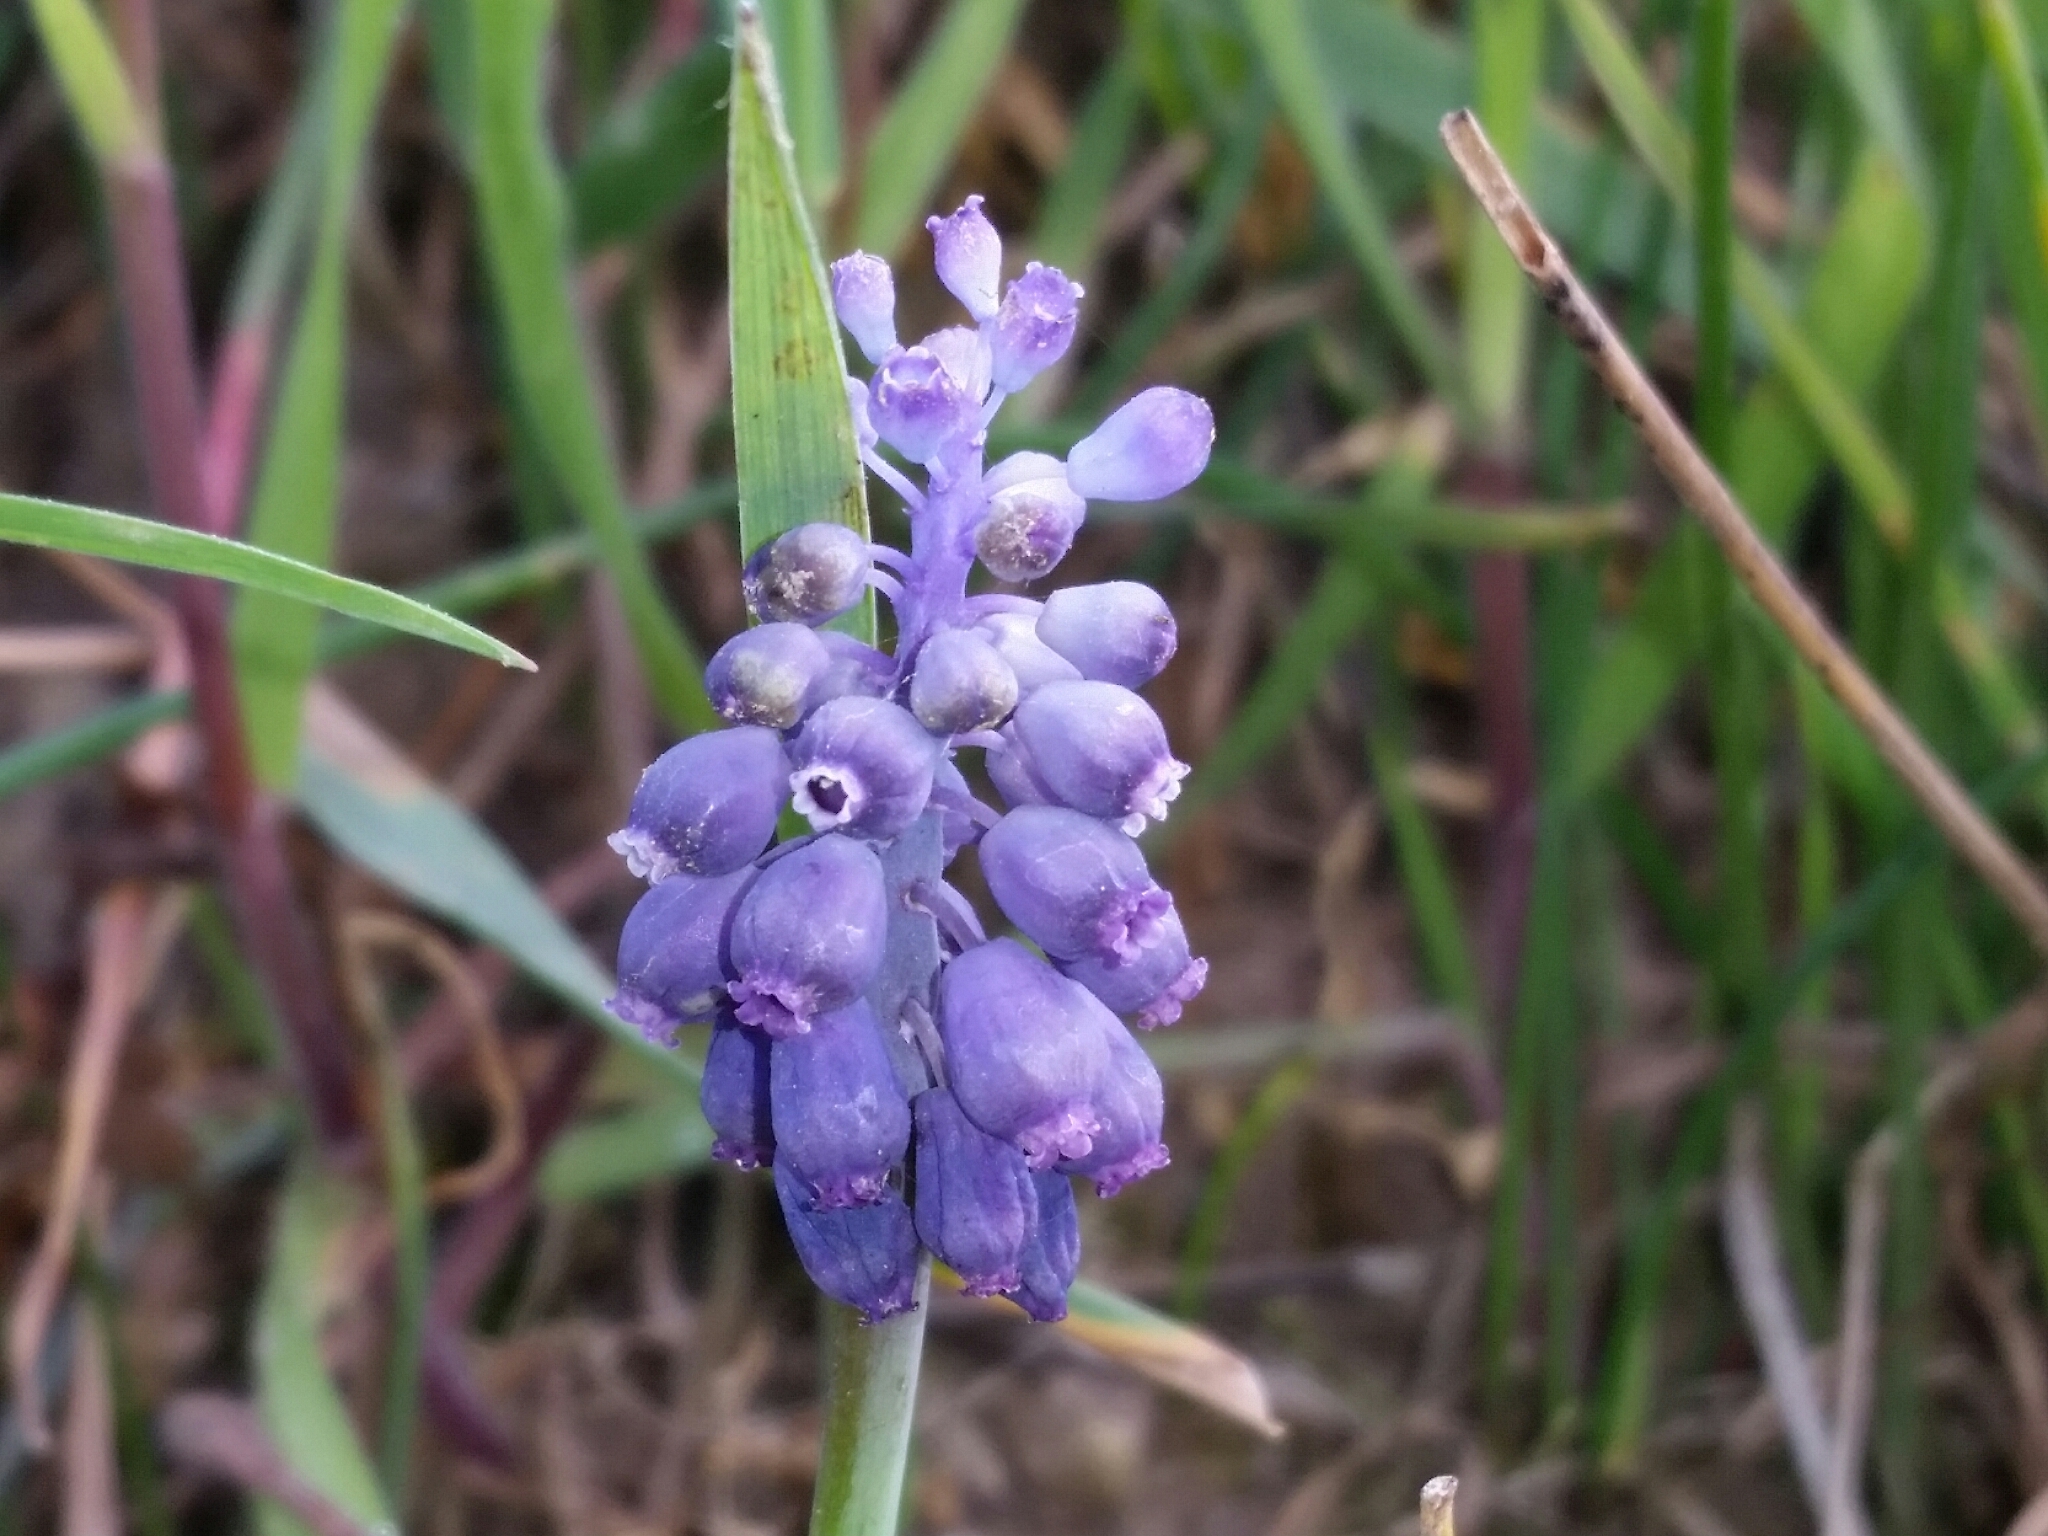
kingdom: Plantae
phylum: Tracheophyta
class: Liliopsida
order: Asparagales
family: Asparagaceae
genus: Muscari
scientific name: Muscari neglectum
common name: Grape-hyacinth
